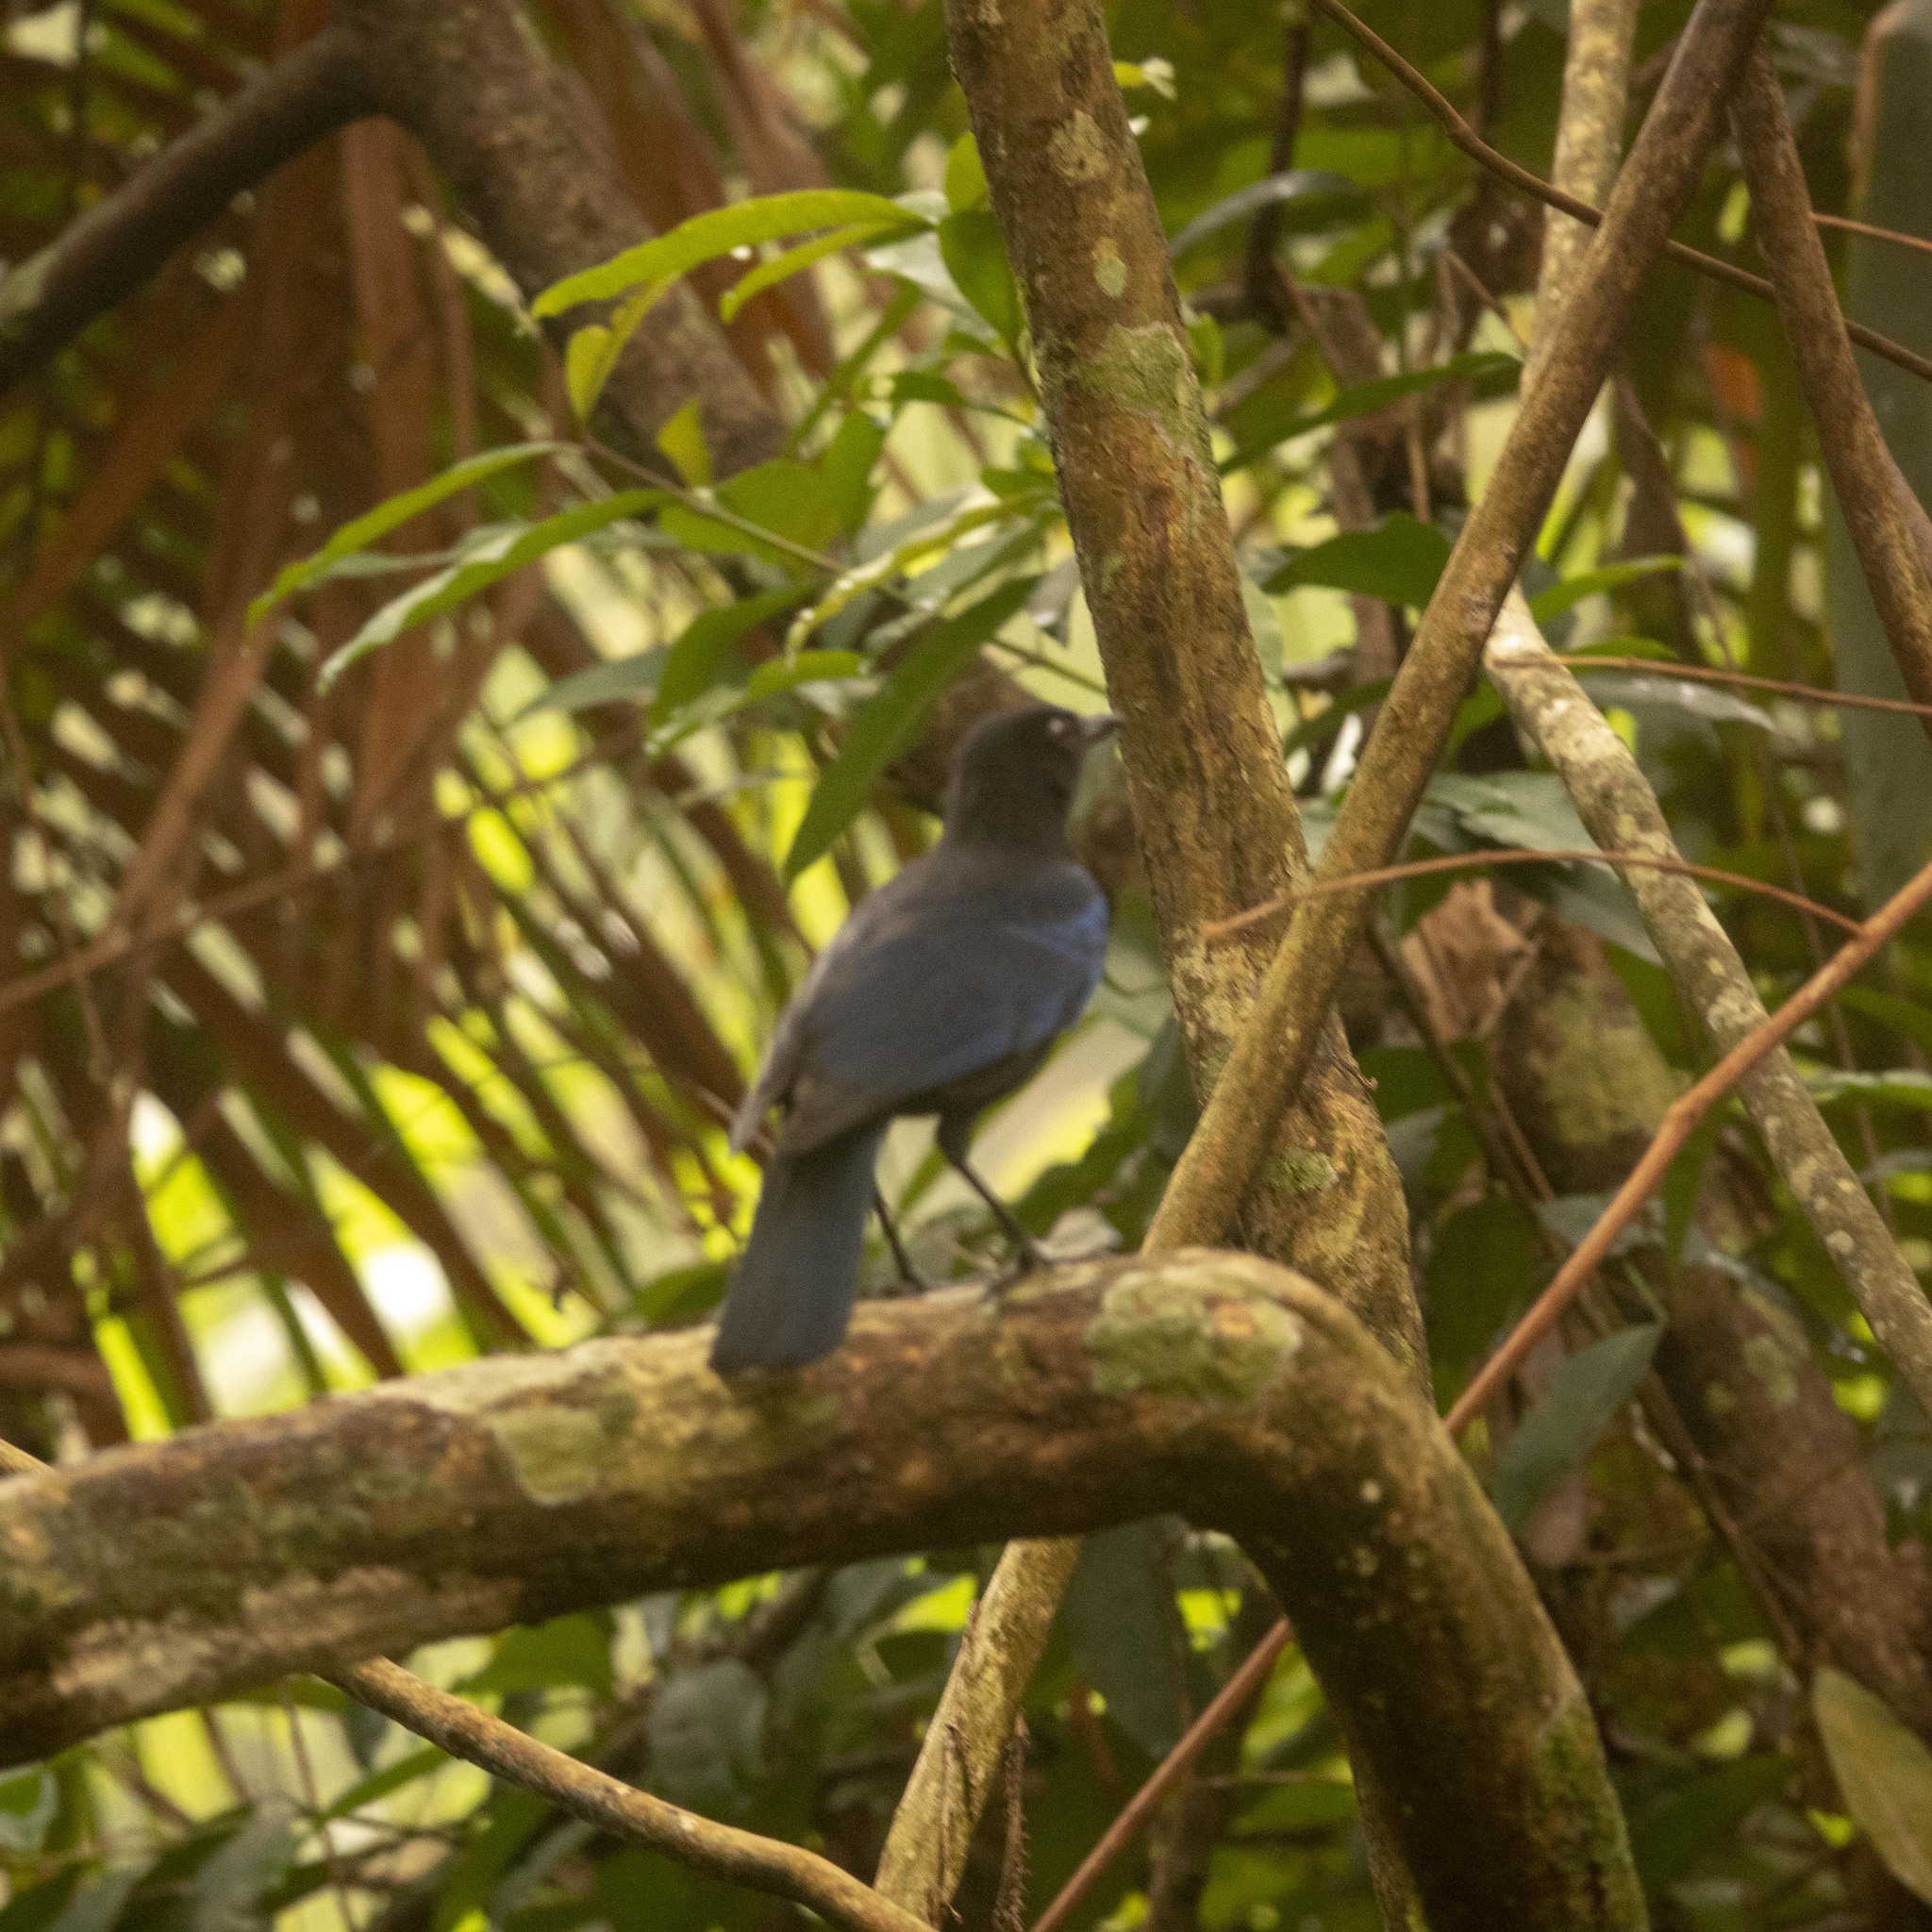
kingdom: Animalia
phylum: Chordata
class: Aves
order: Passeriformes
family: Muscicapidae
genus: Myophonus
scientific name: Myophonus horsfieldii
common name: Malabar whistling-thrush
